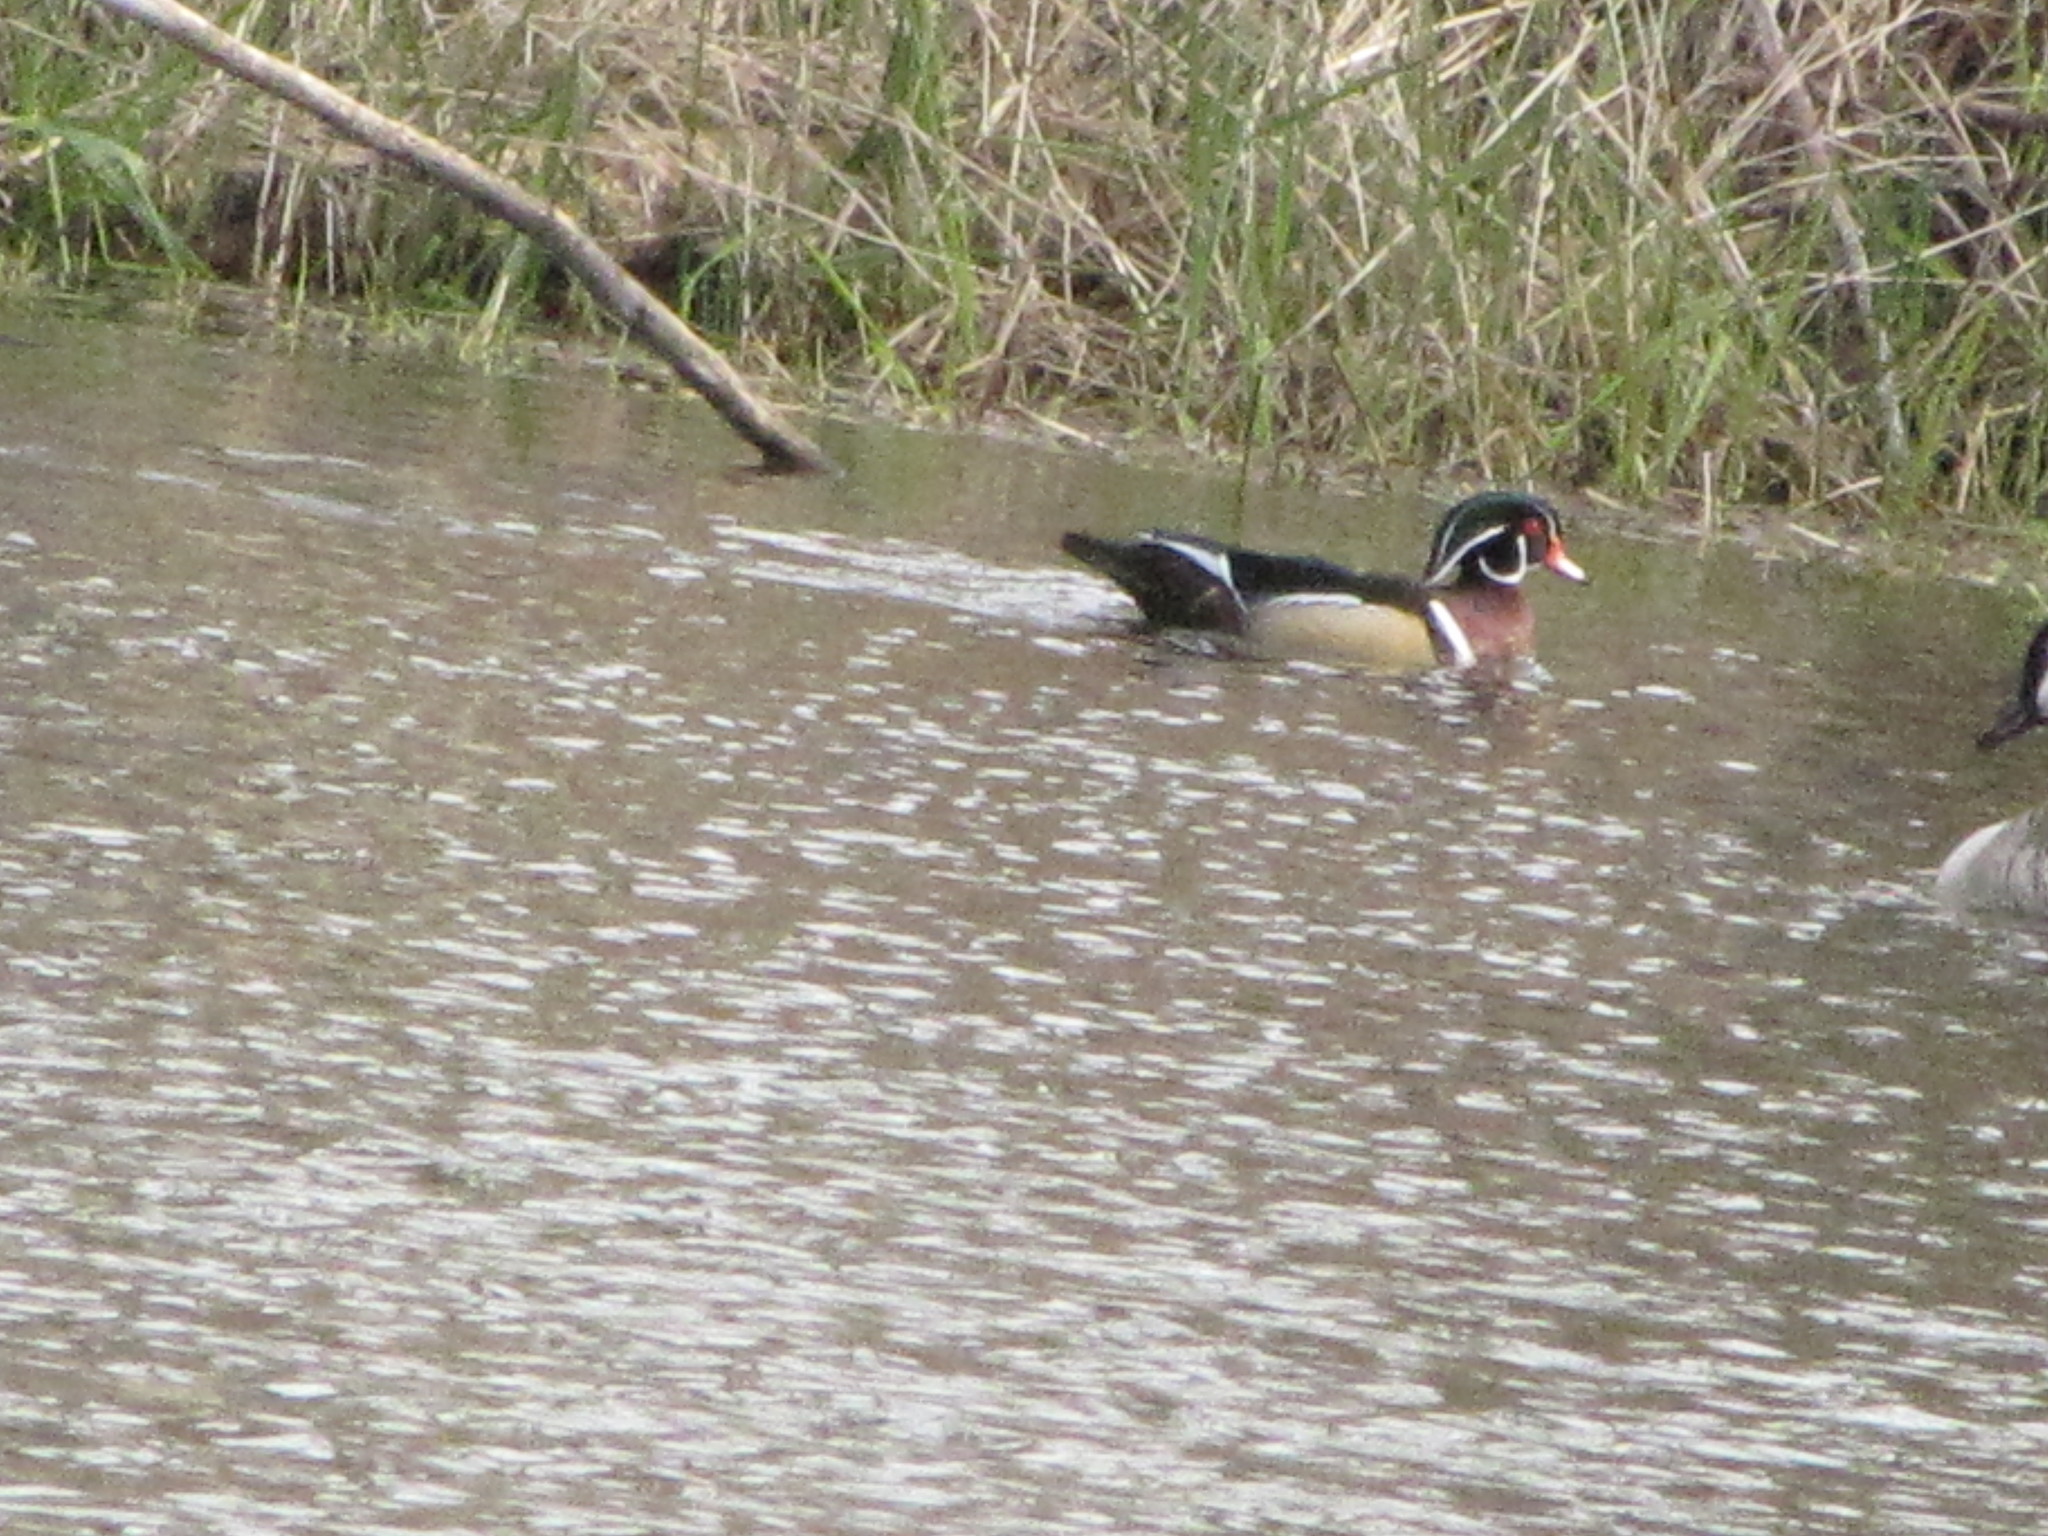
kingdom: Animalia
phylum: Chordata
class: Aves
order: Anseriformes
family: Anatidae
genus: Aix
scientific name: Aix sponsa
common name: Wood duck
